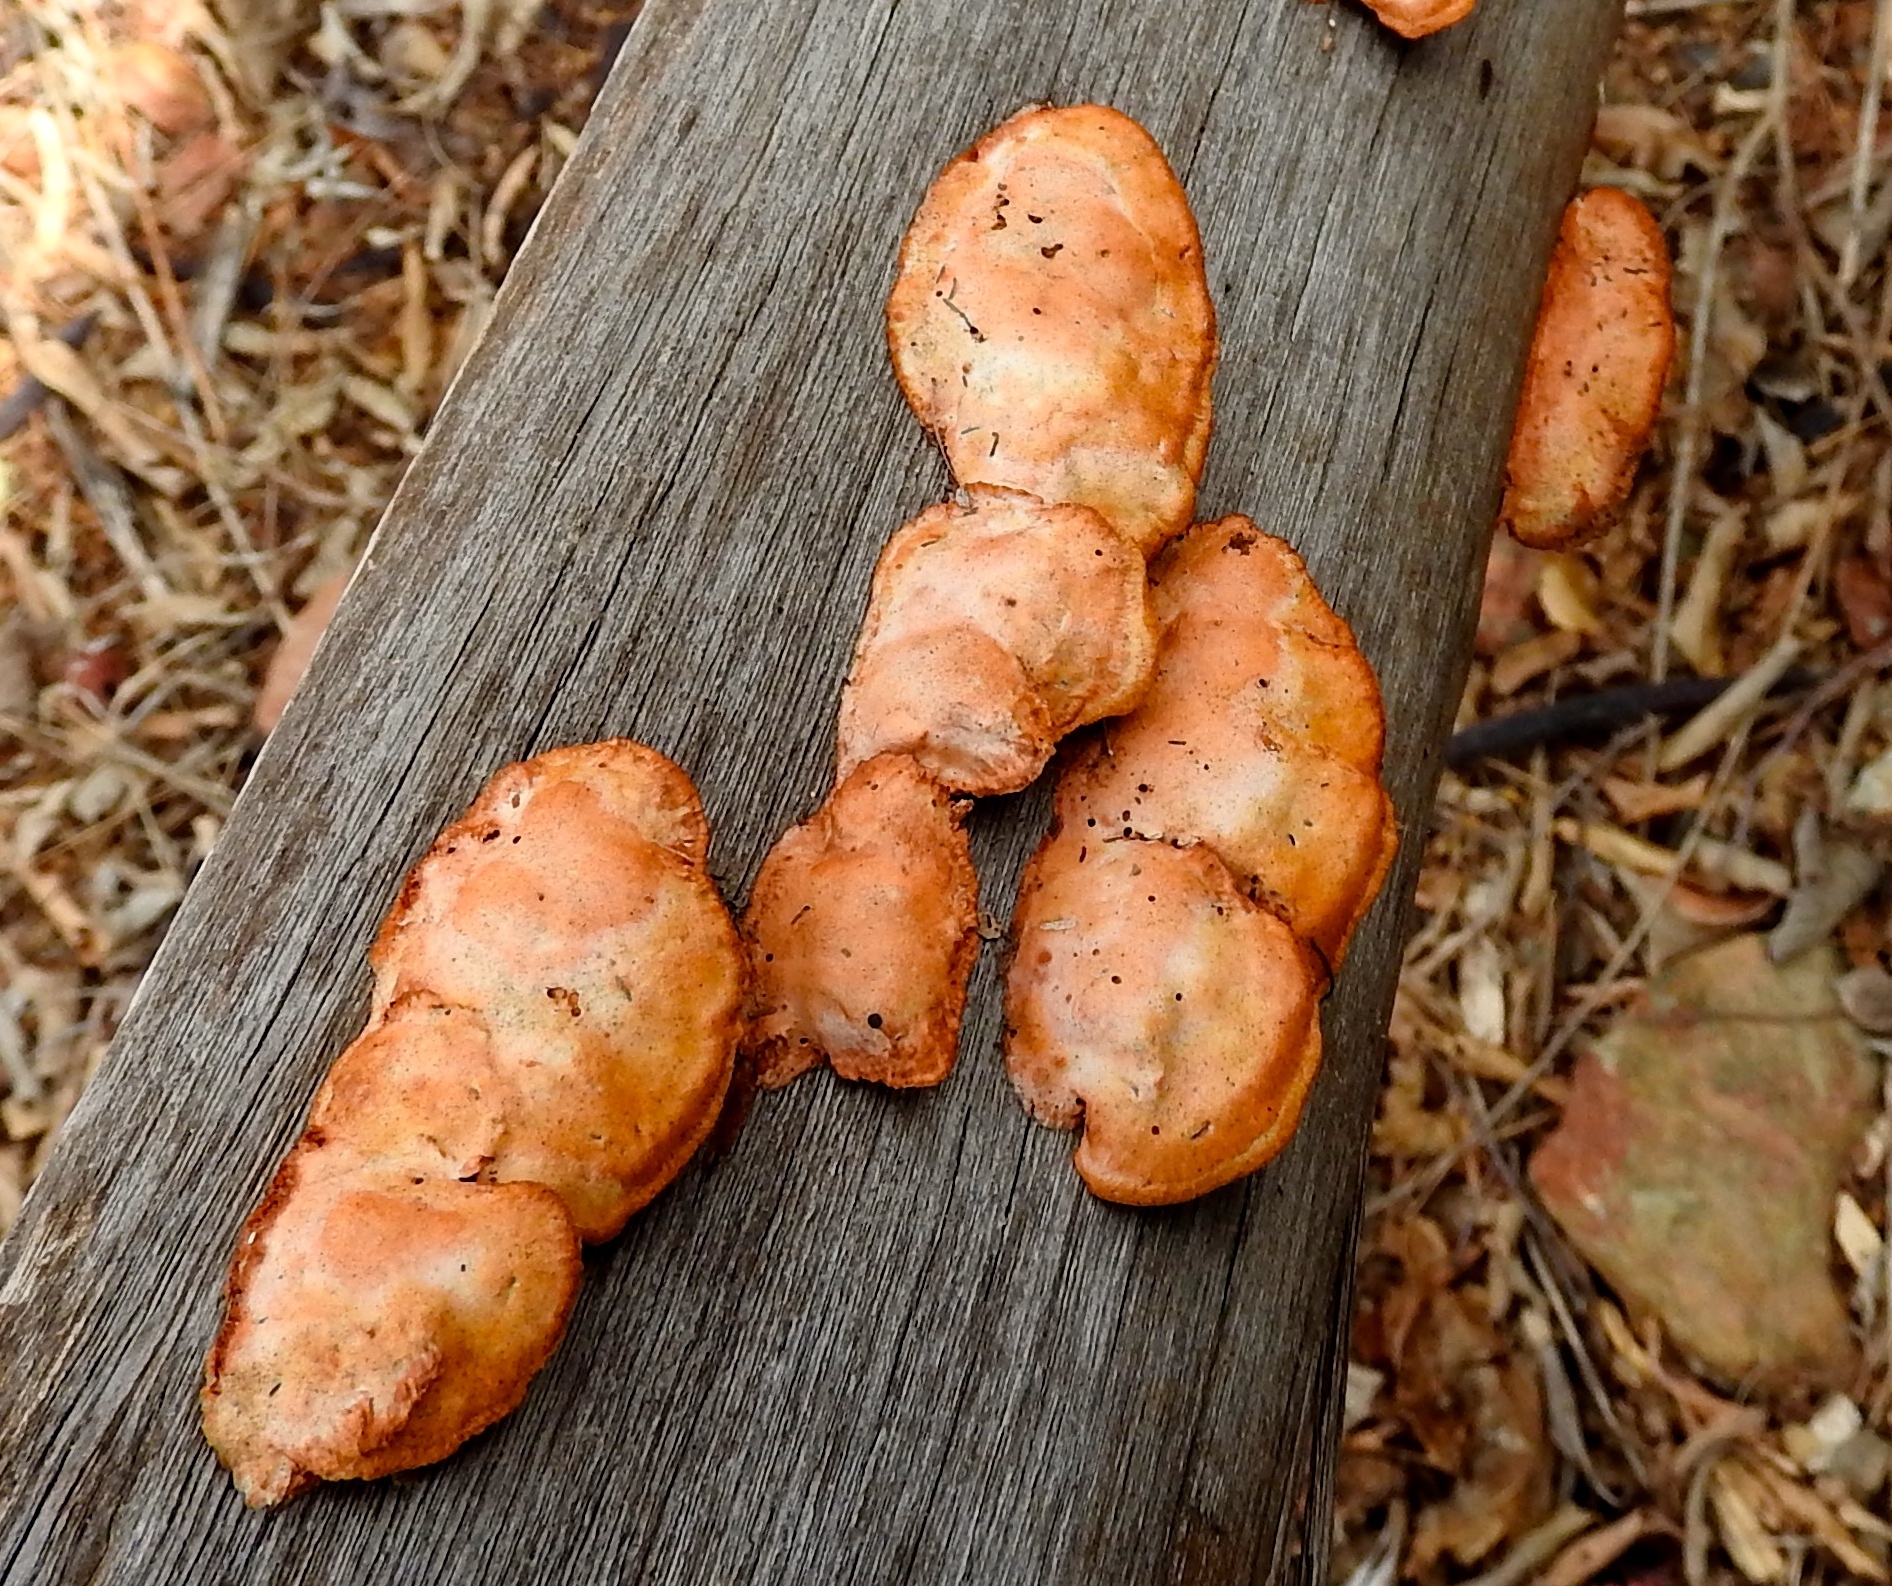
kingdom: Fungi
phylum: Basidiomycota
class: Agaricomycetes
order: Polyporales
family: Polyporaceae
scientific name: Polyporaceae
